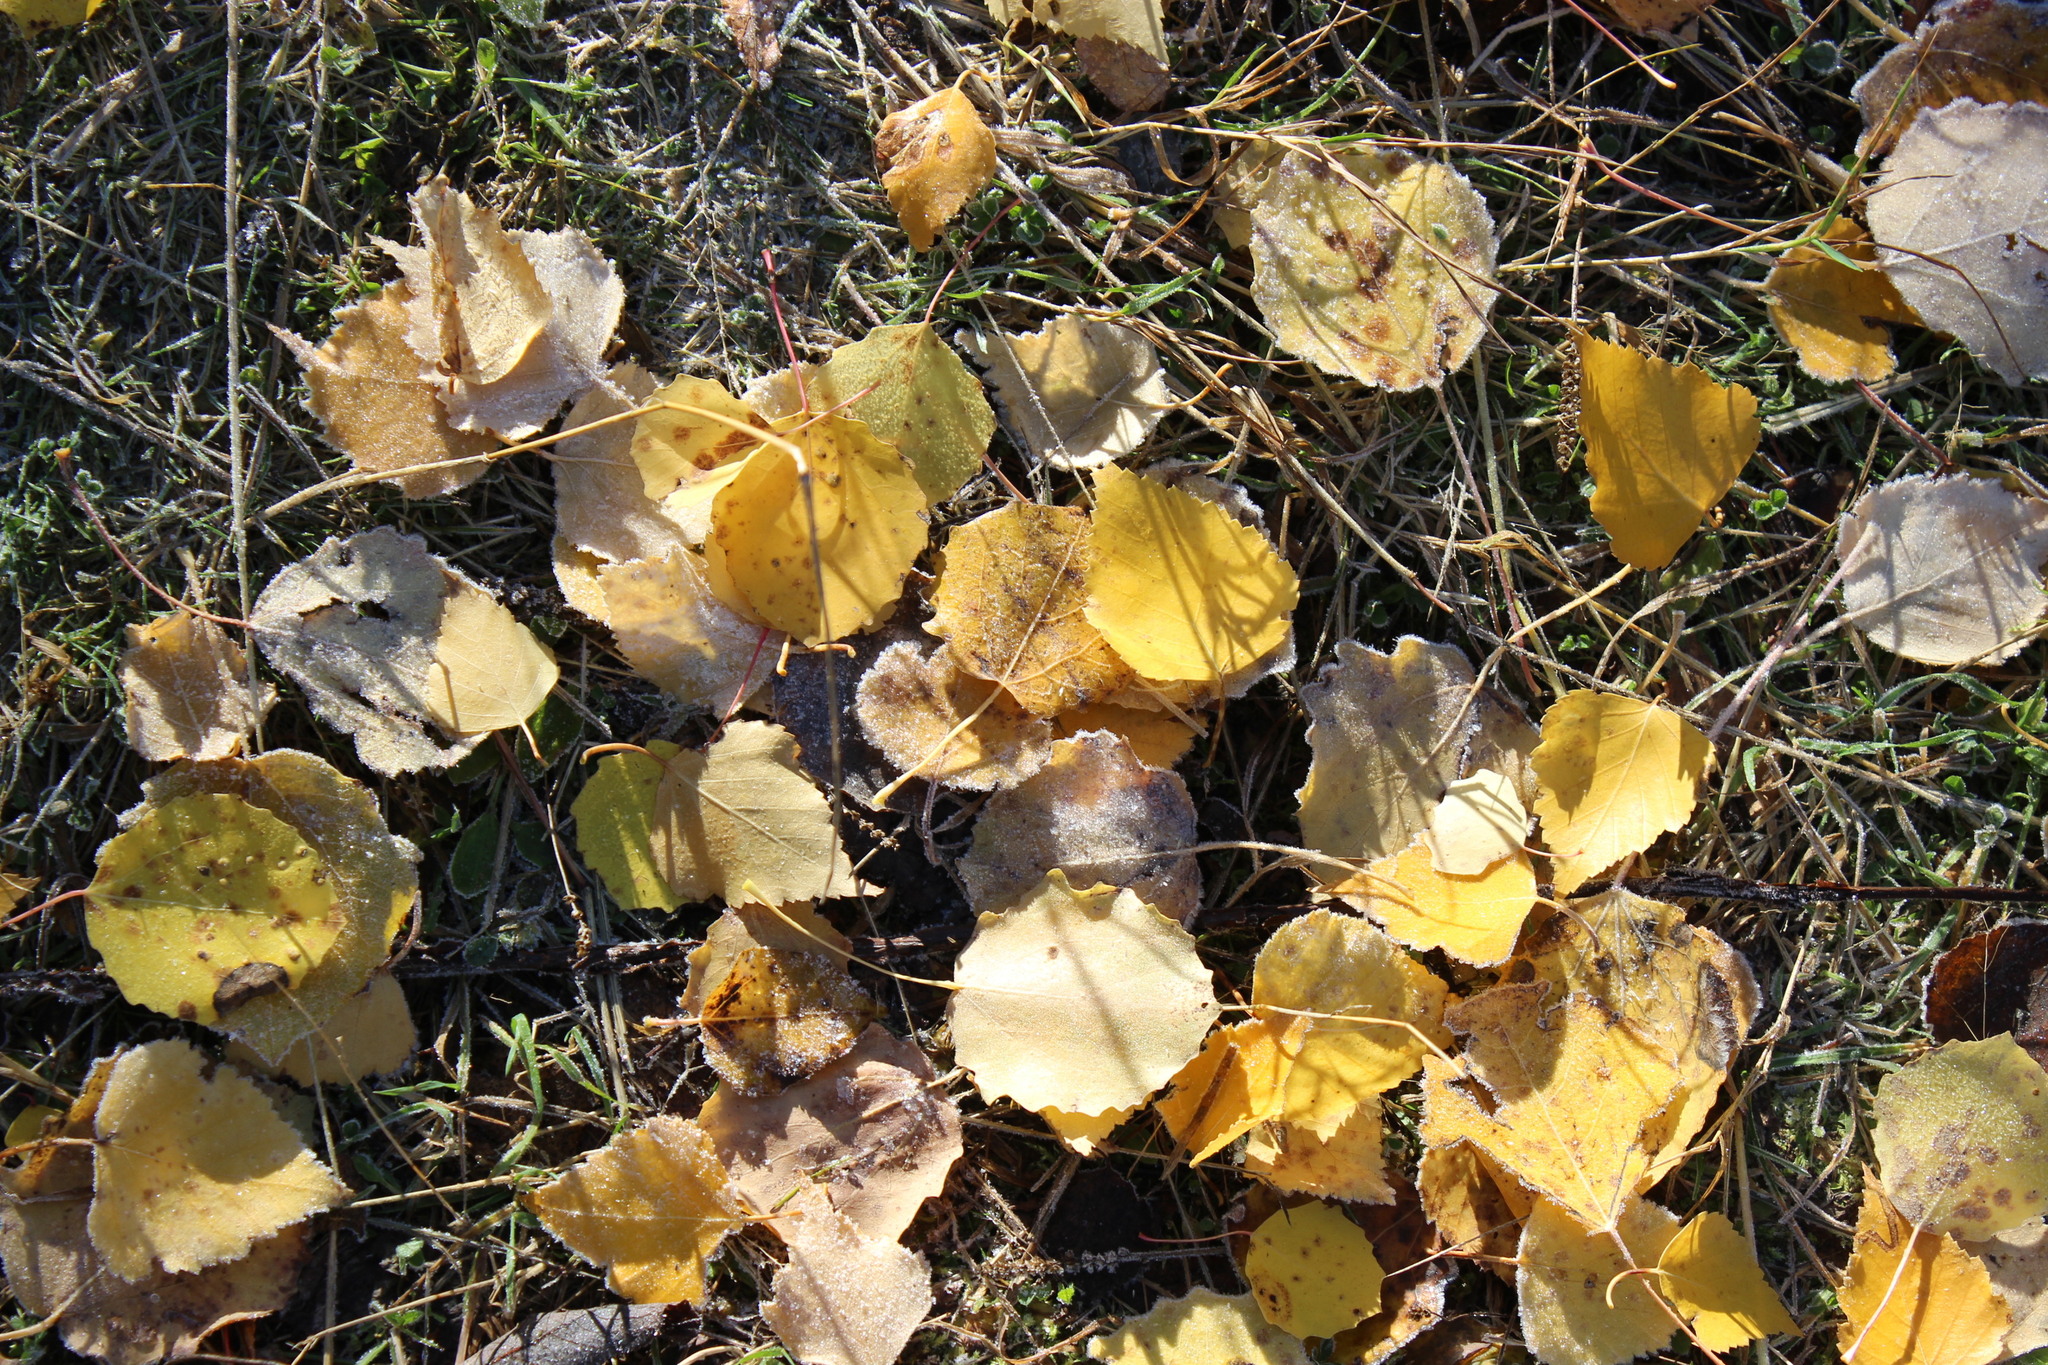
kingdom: Plantae
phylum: Tracheophyta
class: Magnoliopsida
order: Malpighiales
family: Salicaceae
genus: Populus
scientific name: Populus tremula
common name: European aspen
